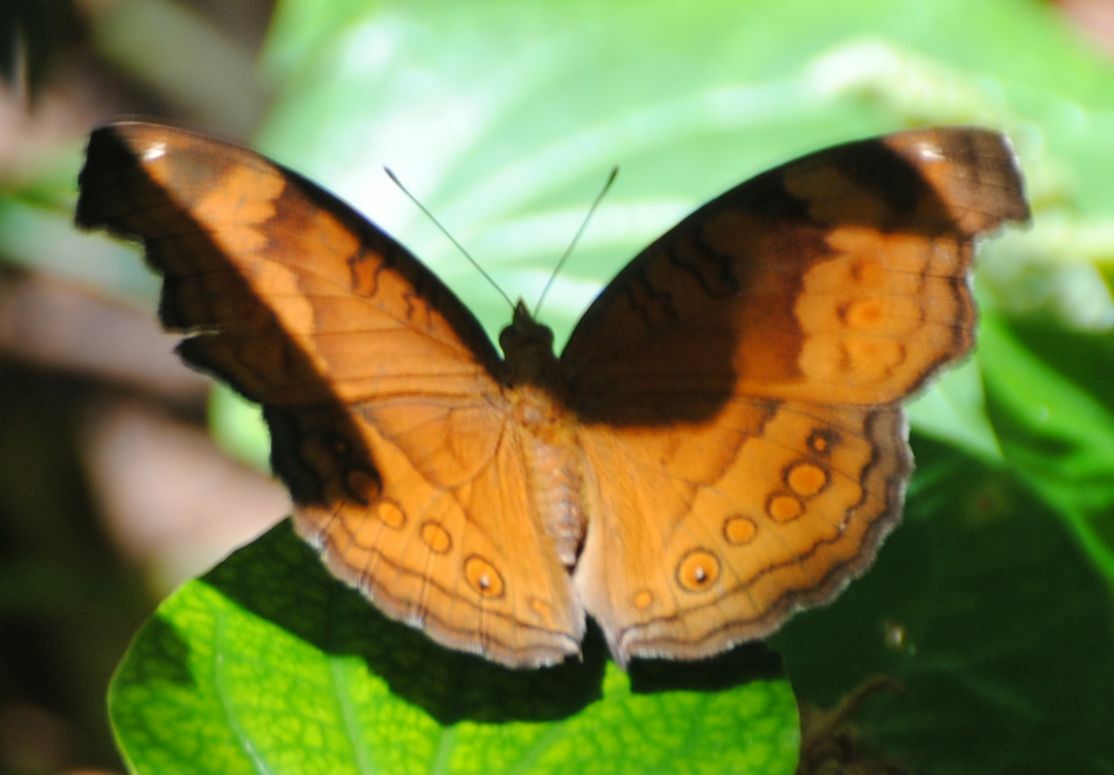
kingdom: Animalia
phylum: Arthropoda
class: Insecta
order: Lepidoptera
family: Nymphalidae
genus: Junonia
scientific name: Junonia hedonia
